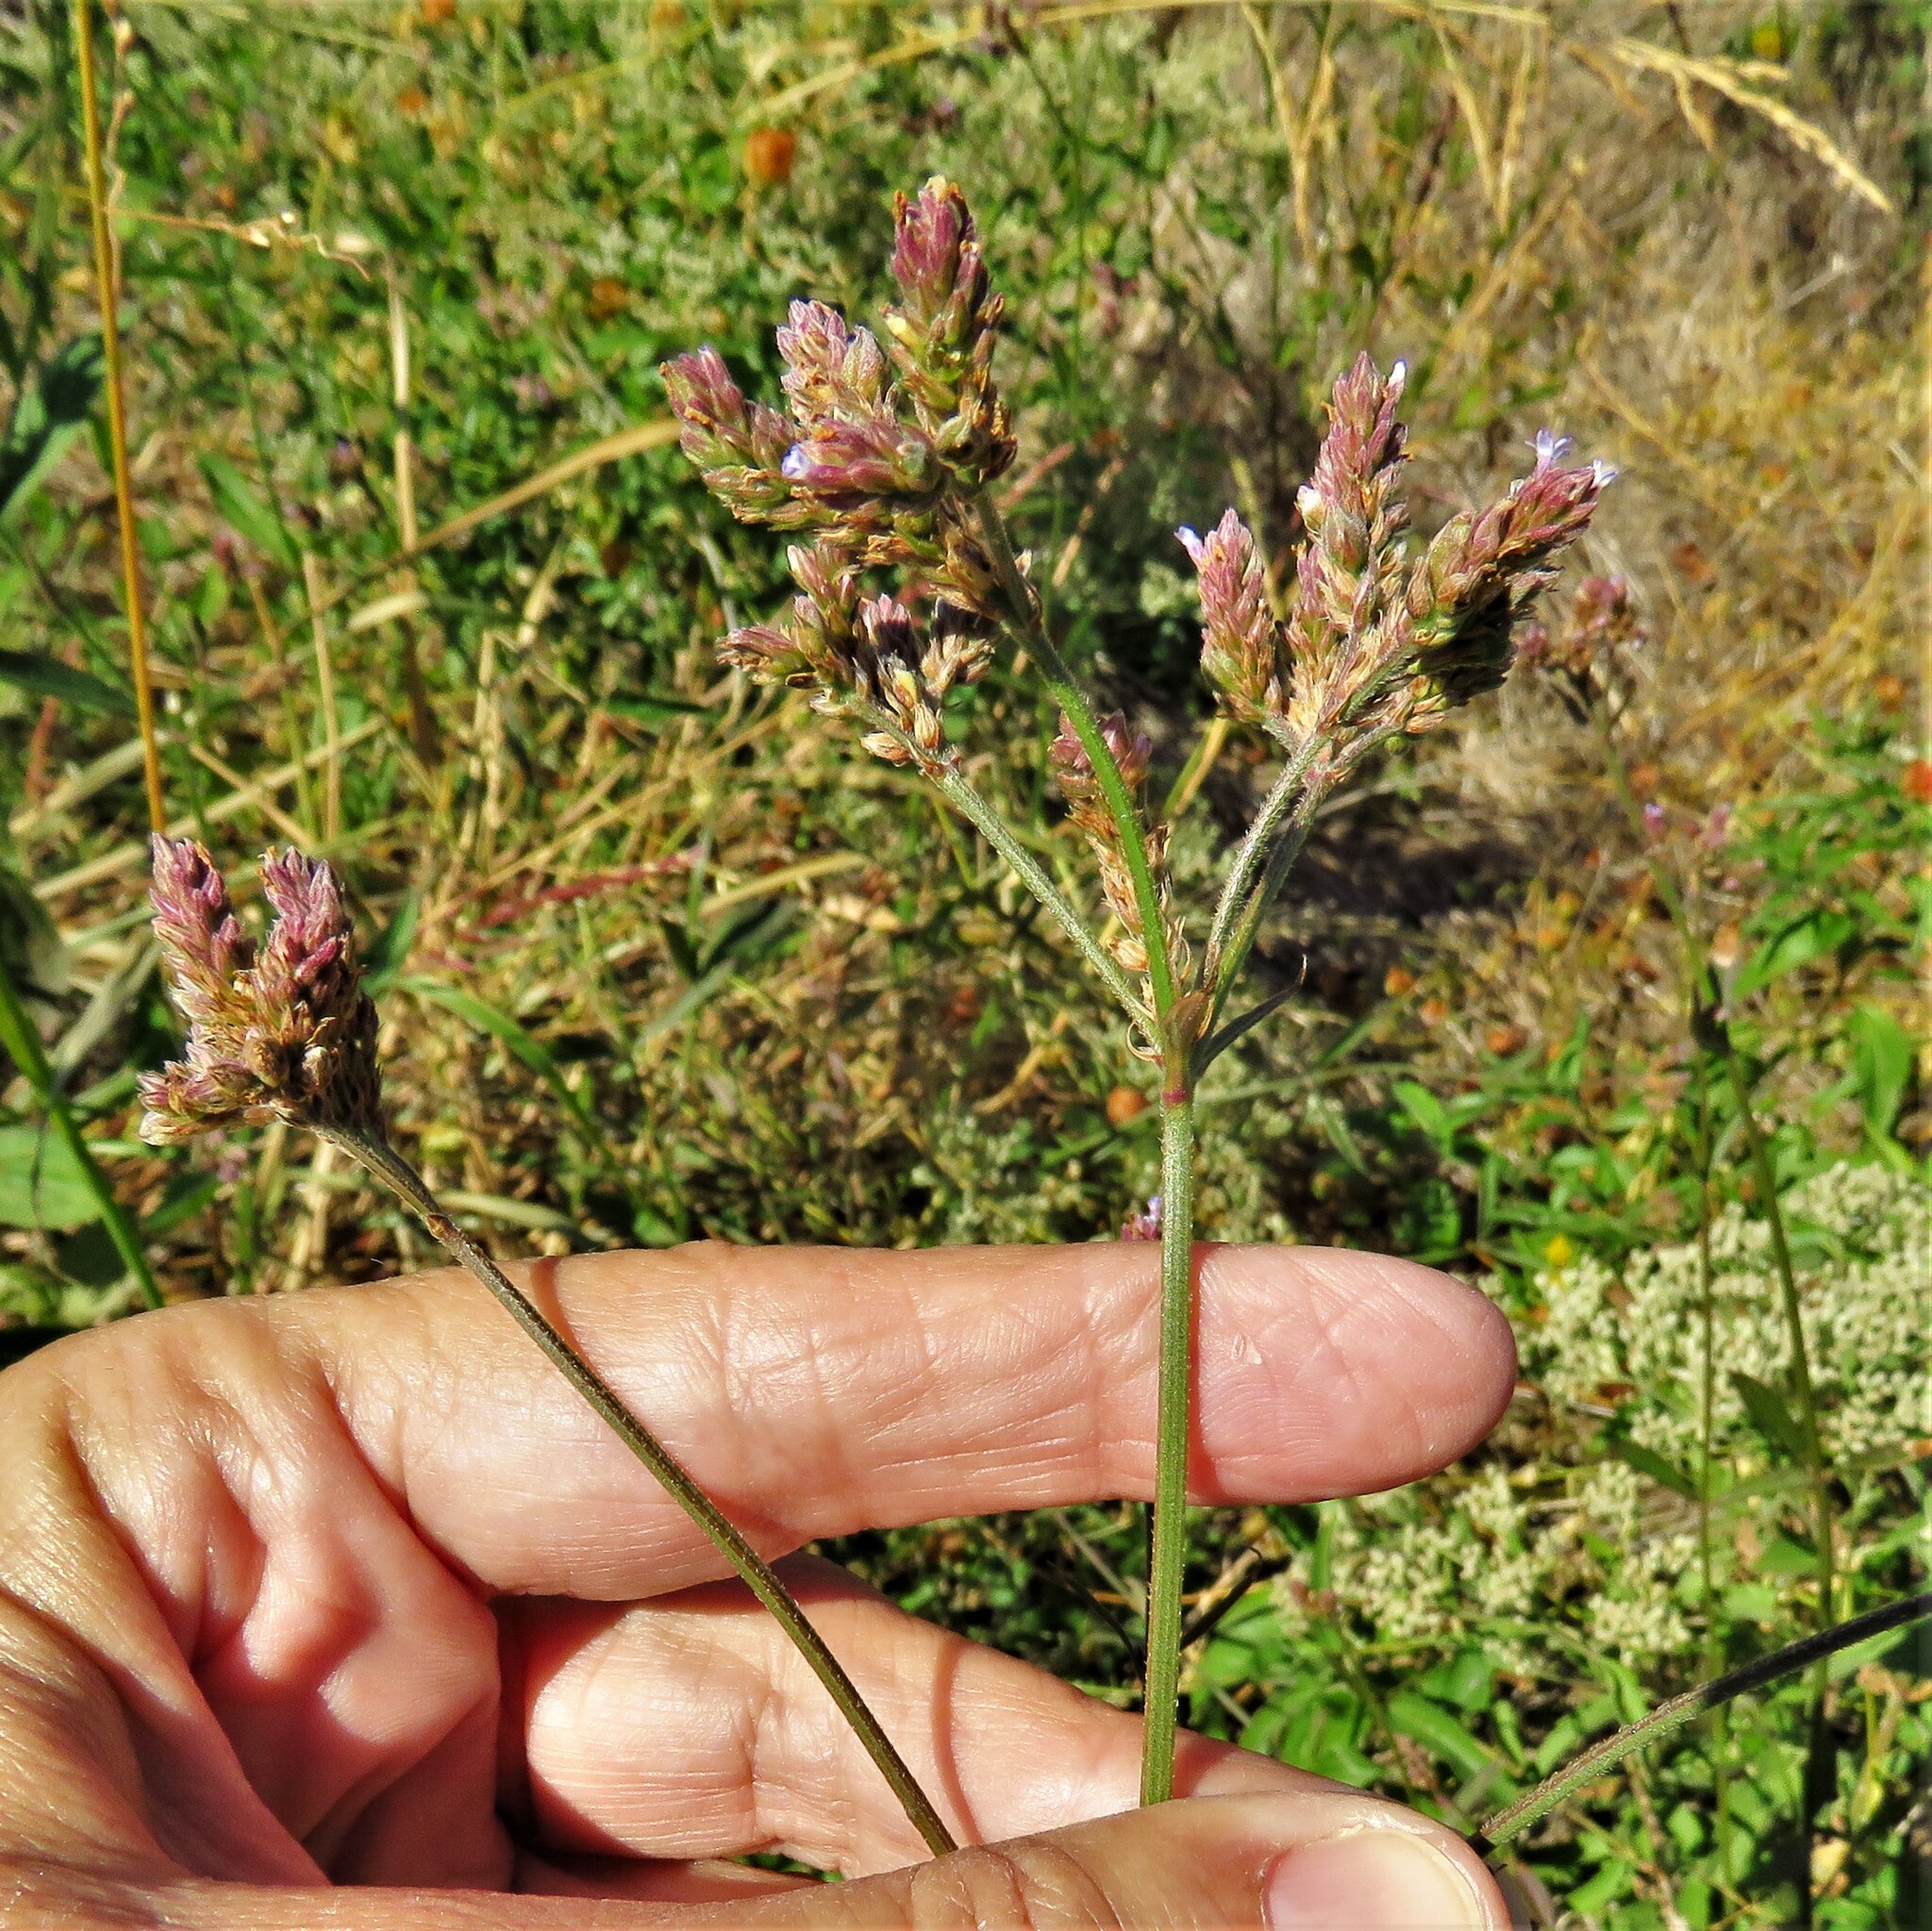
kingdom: Plantae
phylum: Tracheophyta
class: Magnoliopsida
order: Lamiales
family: Verbenaceae
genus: Verbena
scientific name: Verbena brasiliensis
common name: Brazilian vervain
